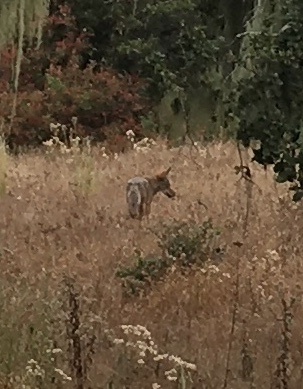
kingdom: Animalia
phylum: Chordata
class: Mammalia
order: Carnivora
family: Canidae
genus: Canis
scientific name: Canis latrans
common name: Coyote
